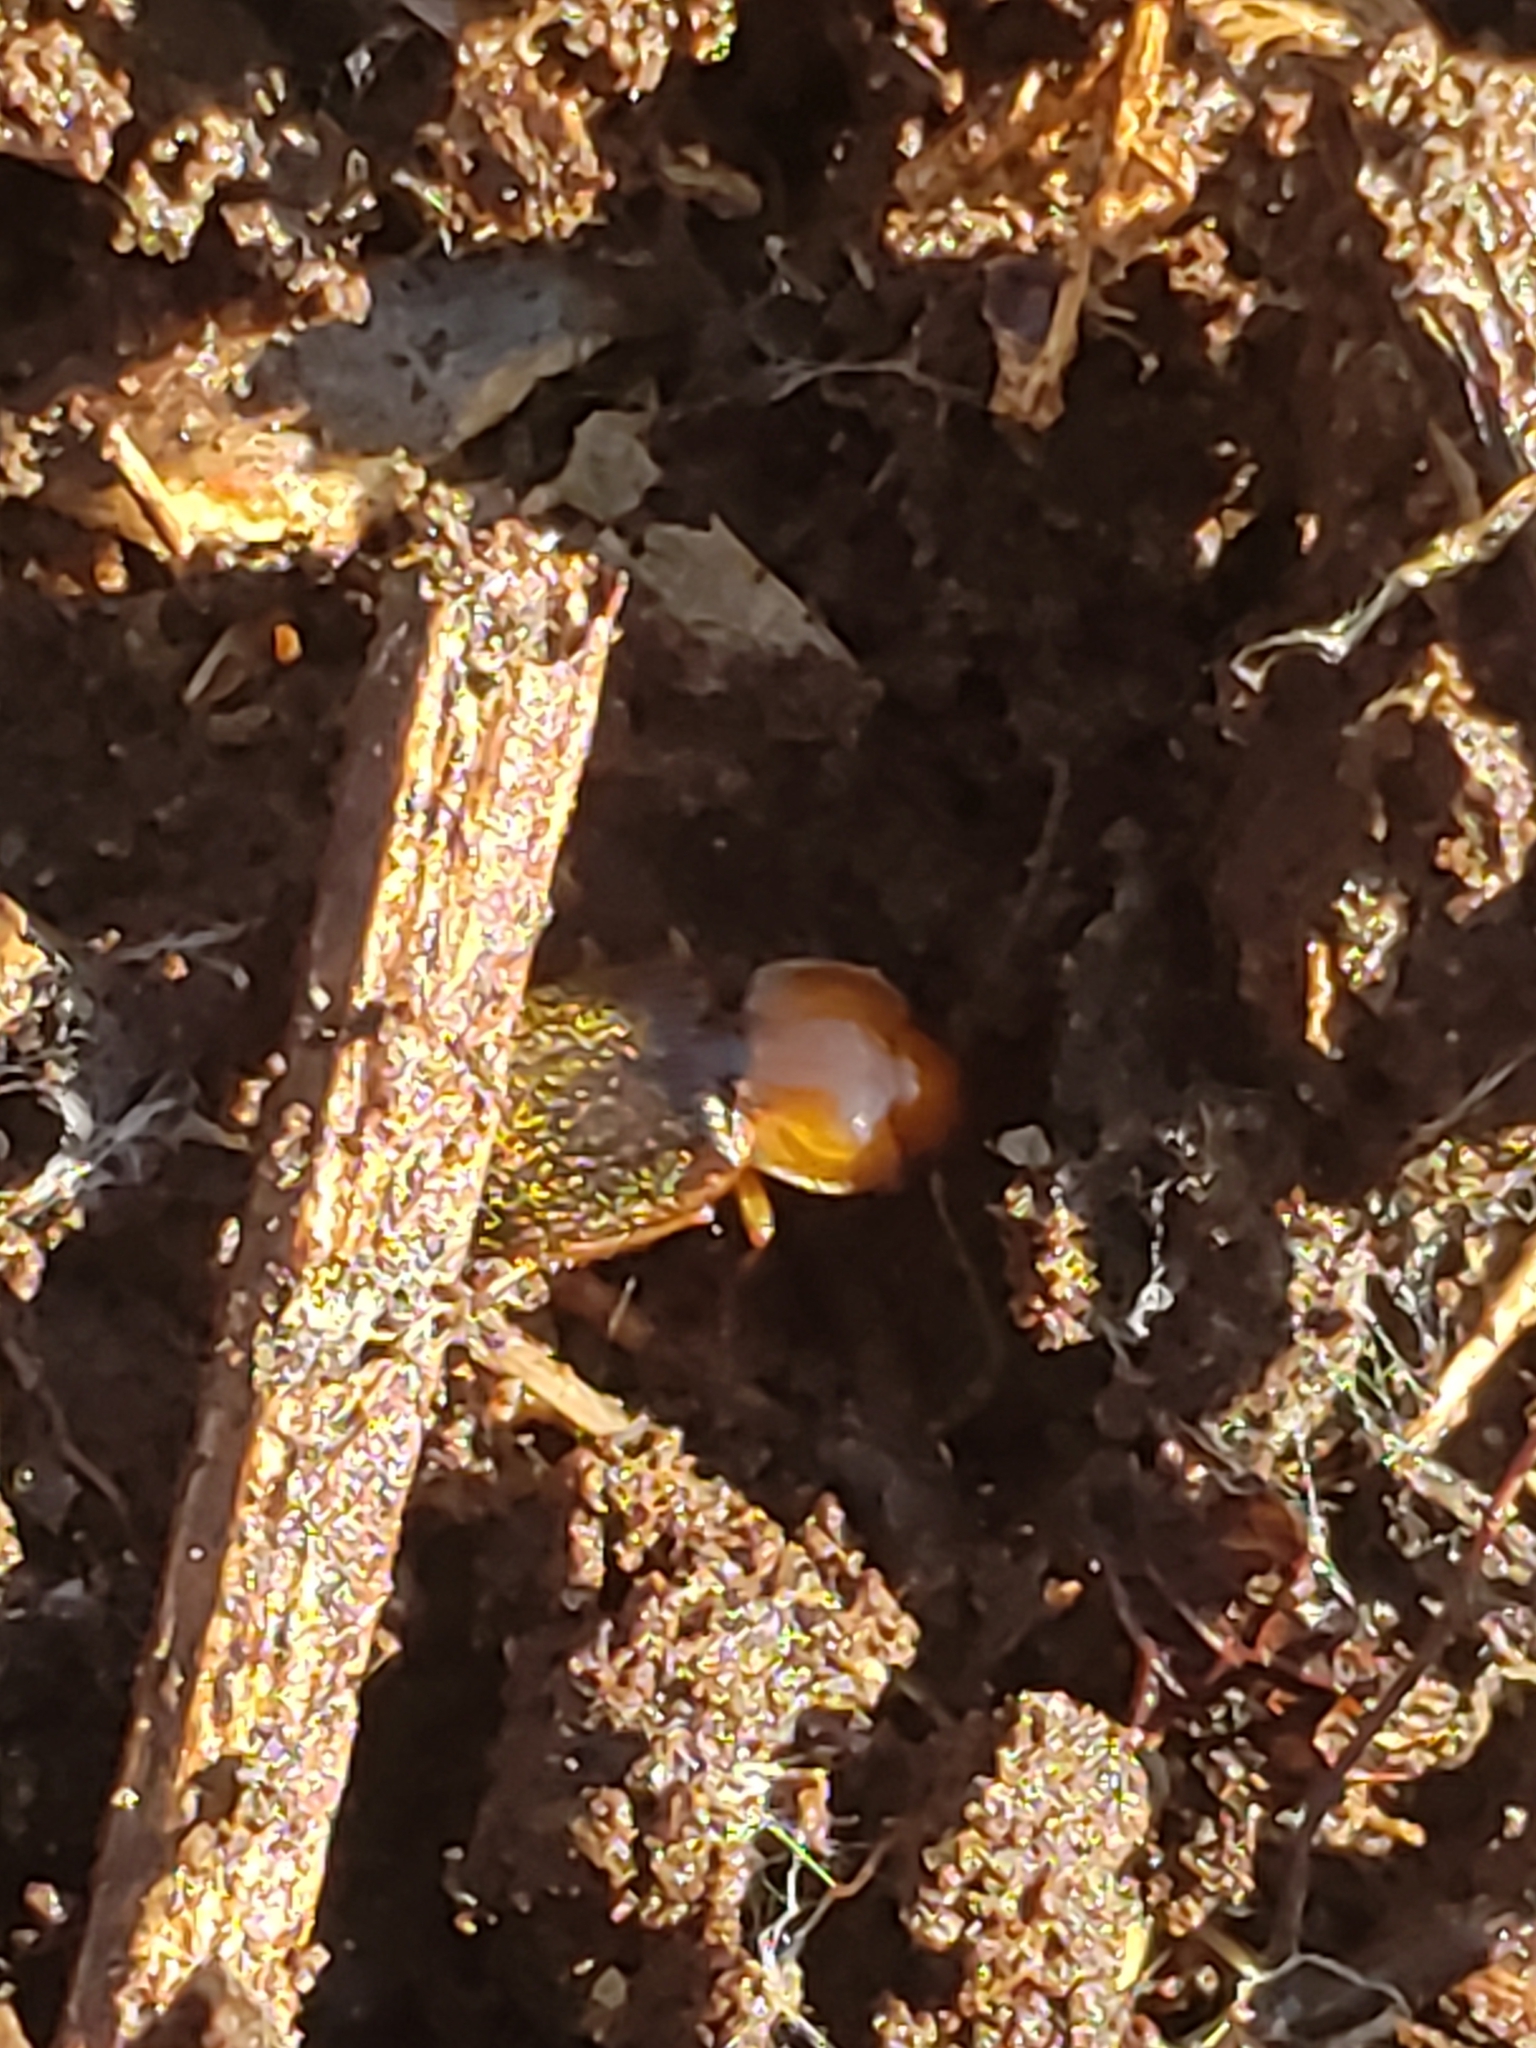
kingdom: Animalia
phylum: Arthropoda
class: Insecta
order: Coleoptera
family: Carabidae
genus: Amphasia
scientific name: Amphasia interstitialis
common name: Red-headed ground beetle
